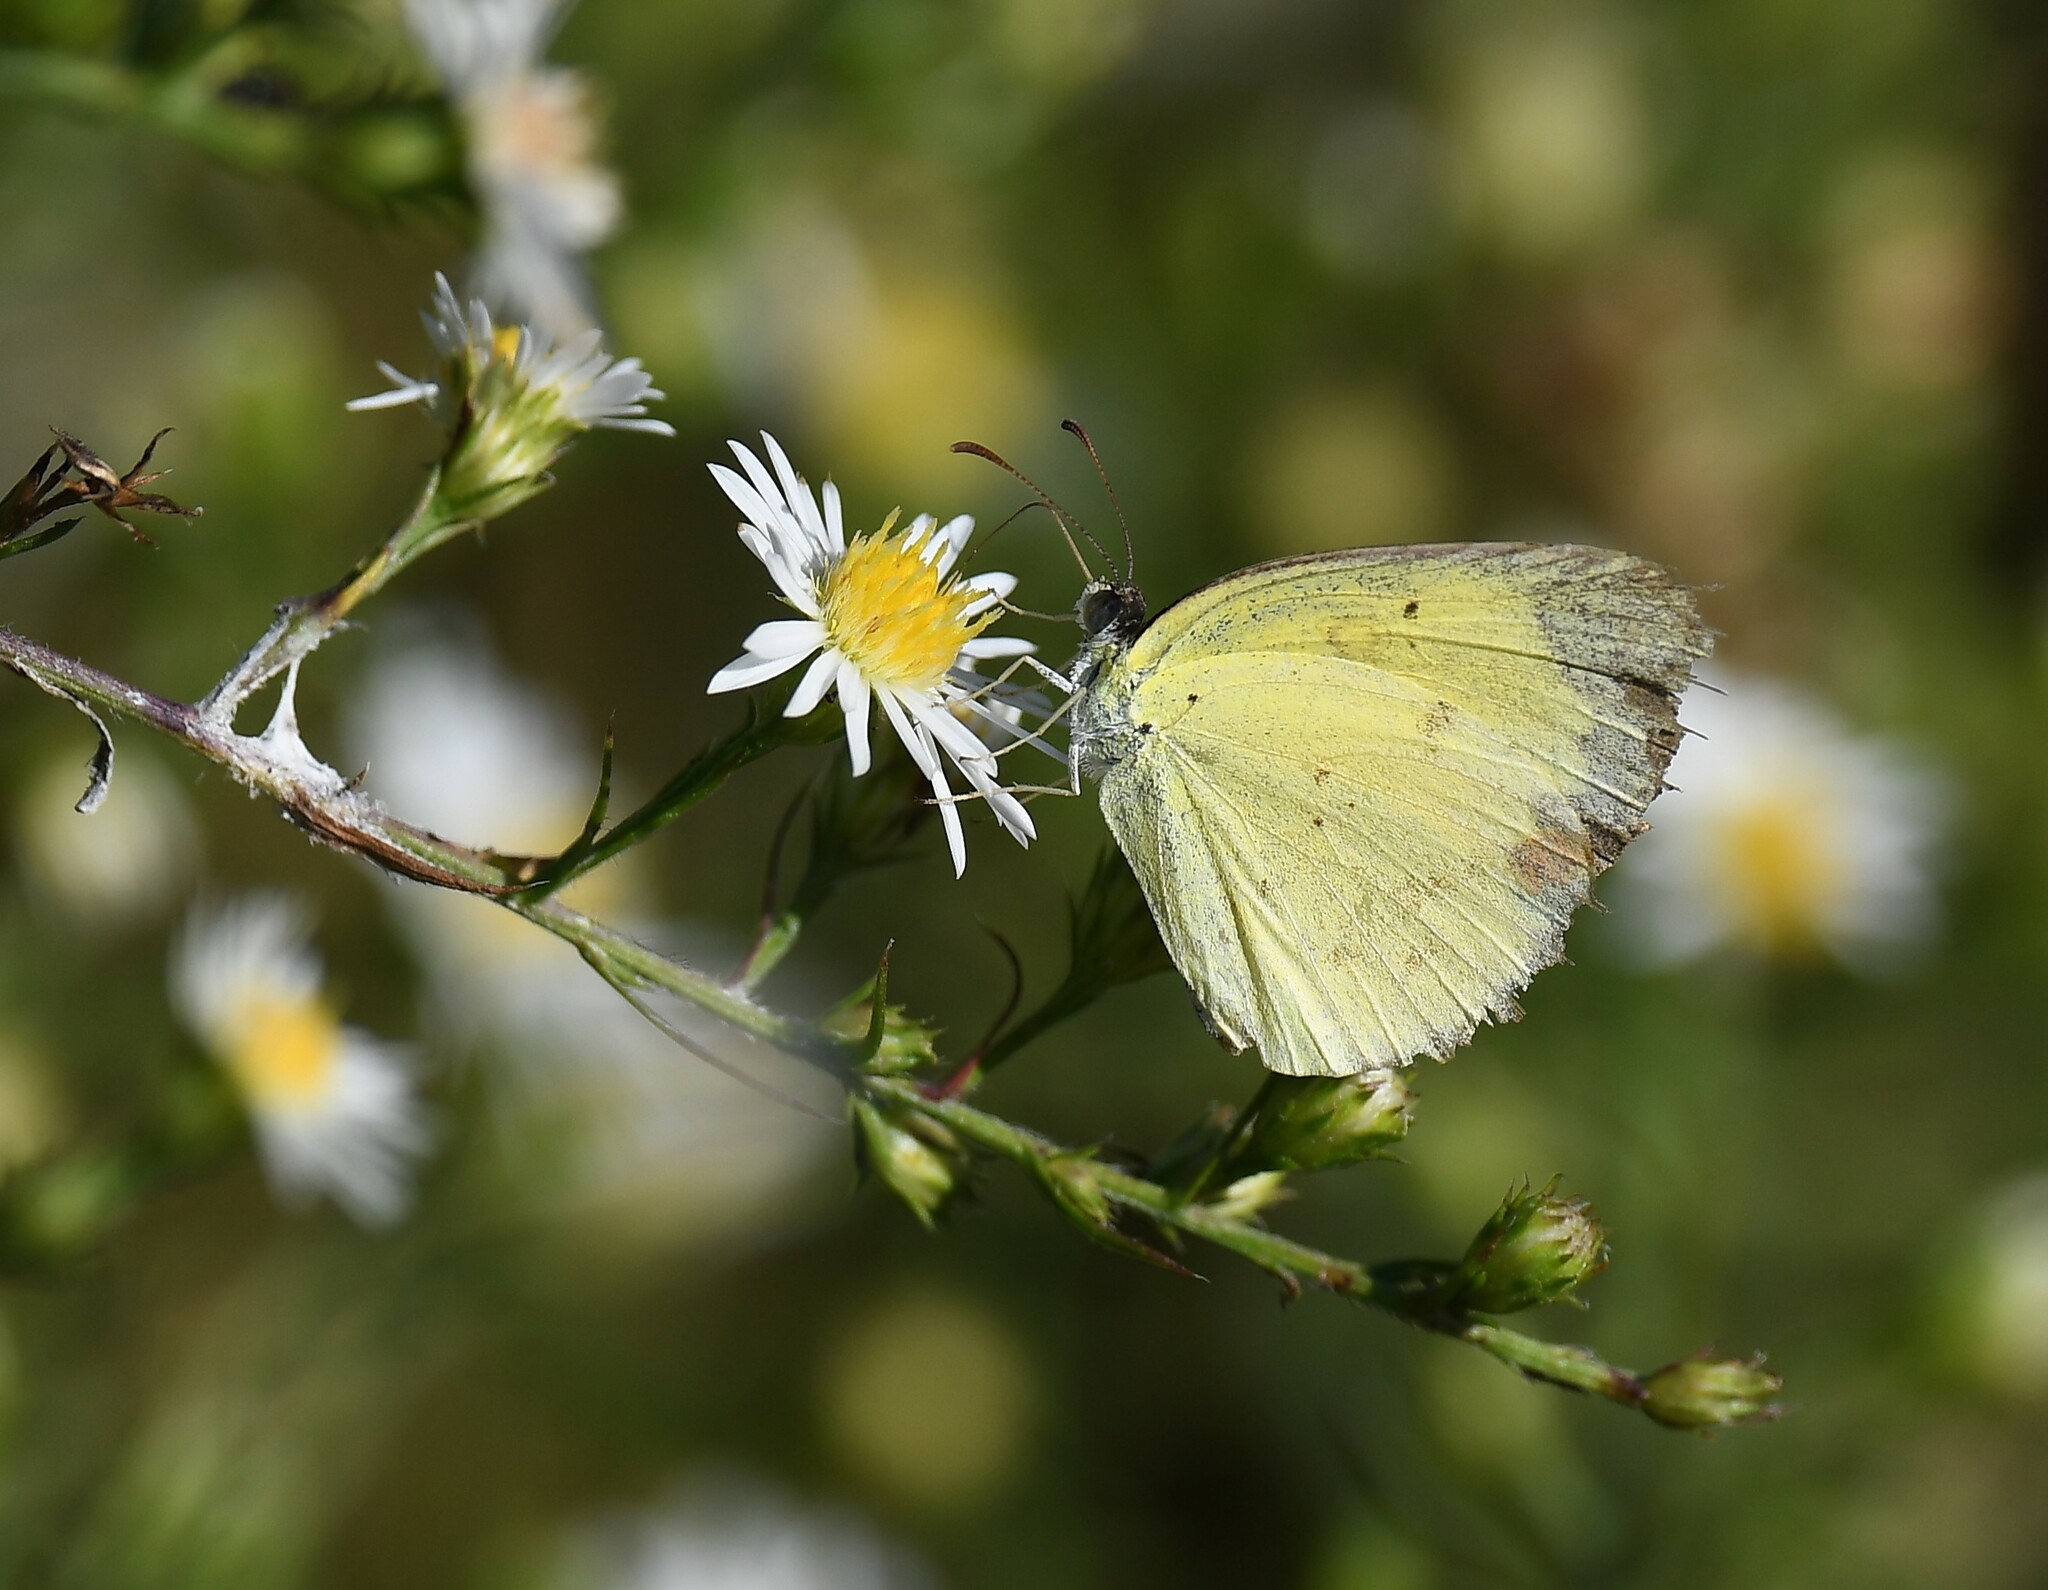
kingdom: Animalia
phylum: Arthropoda
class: Insecta
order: Lepidoptera
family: Pieridae
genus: Pyrisitia
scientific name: Pyrisitia lisa
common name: Little yellow
